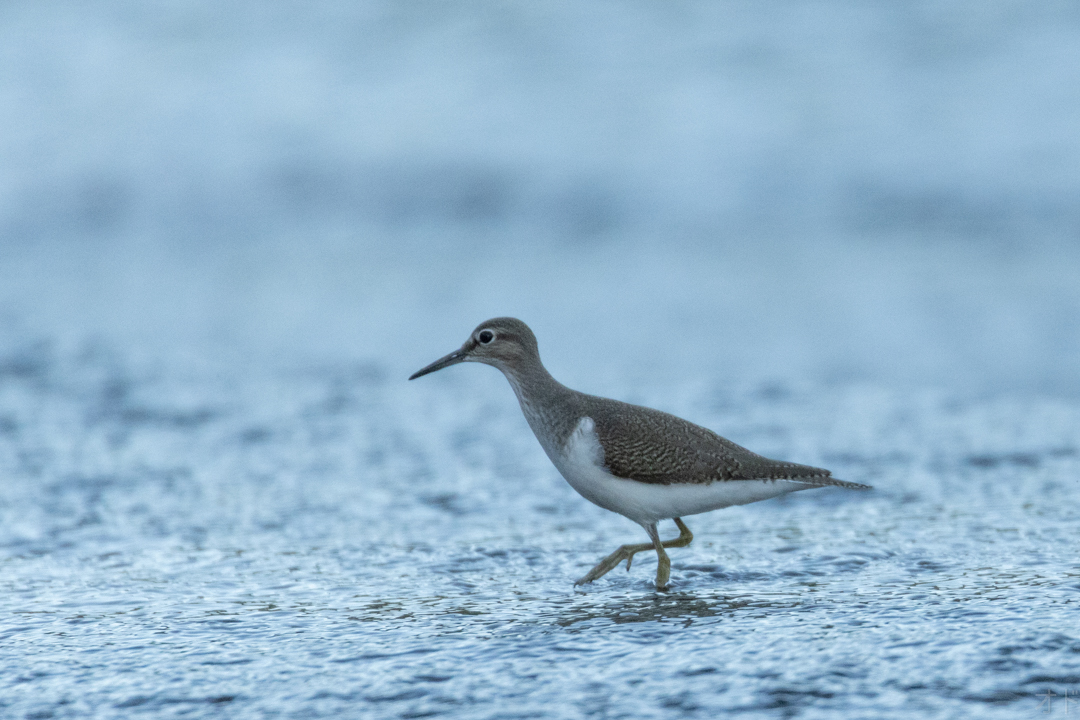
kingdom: Animalia
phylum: Chordata
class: Aves
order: Charadriiformes
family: Scolopacidae
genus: Actitis
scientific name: Actitis hypoleucos
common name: Common sandpiper
